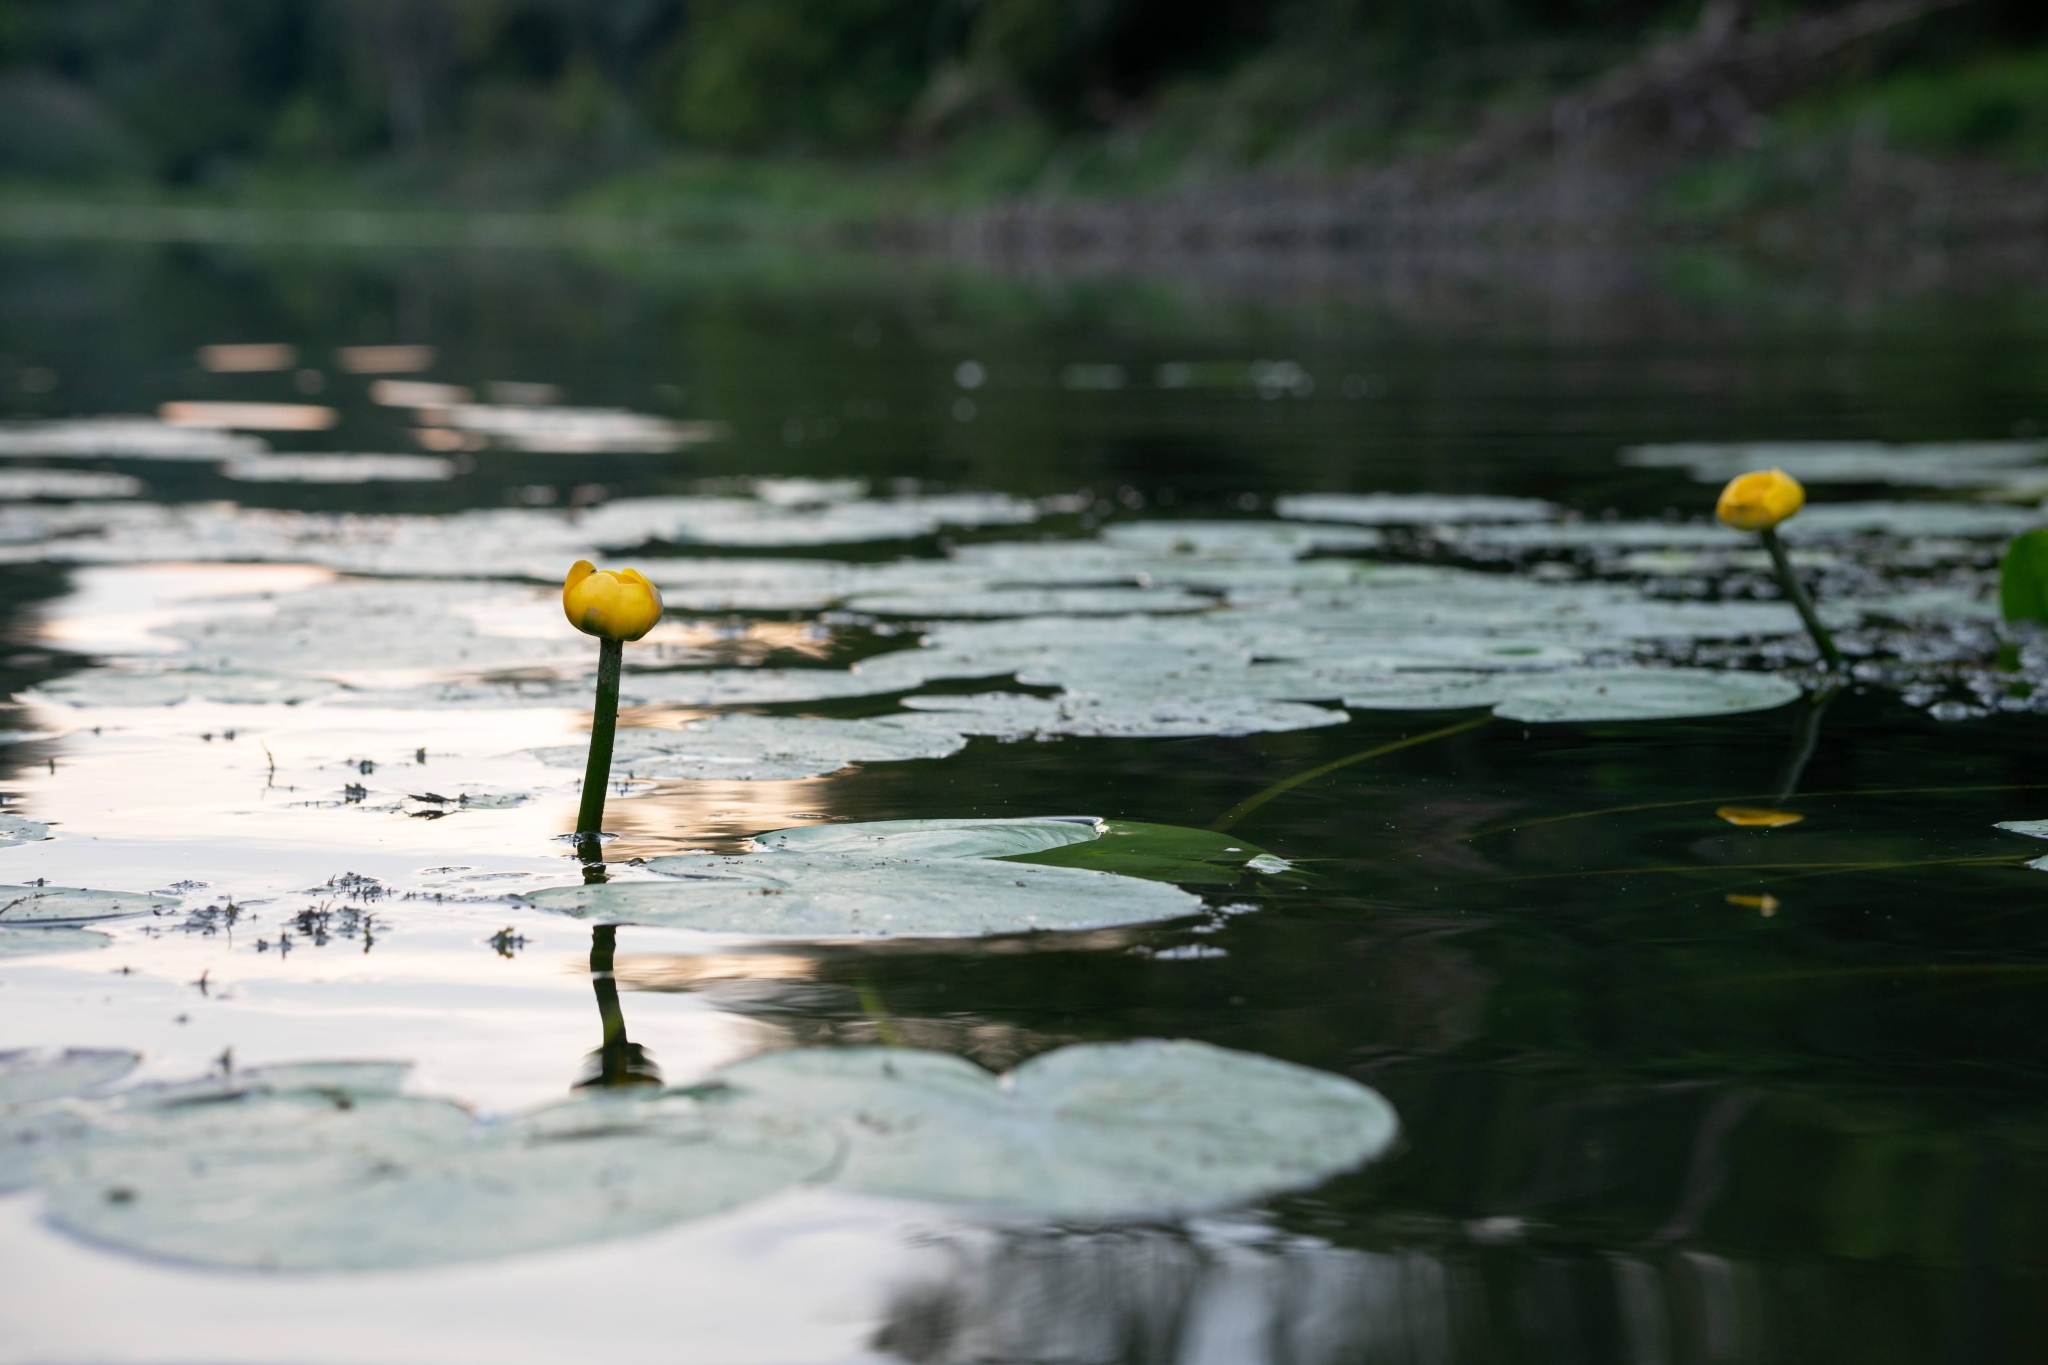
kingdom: Plantae
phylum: Tracheophyta
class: Magnoliopsida
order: Nymphaeales
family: Nymphaeaceae
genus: Nuphar
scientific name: Nuphar lutea
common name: Yellow water-lily
